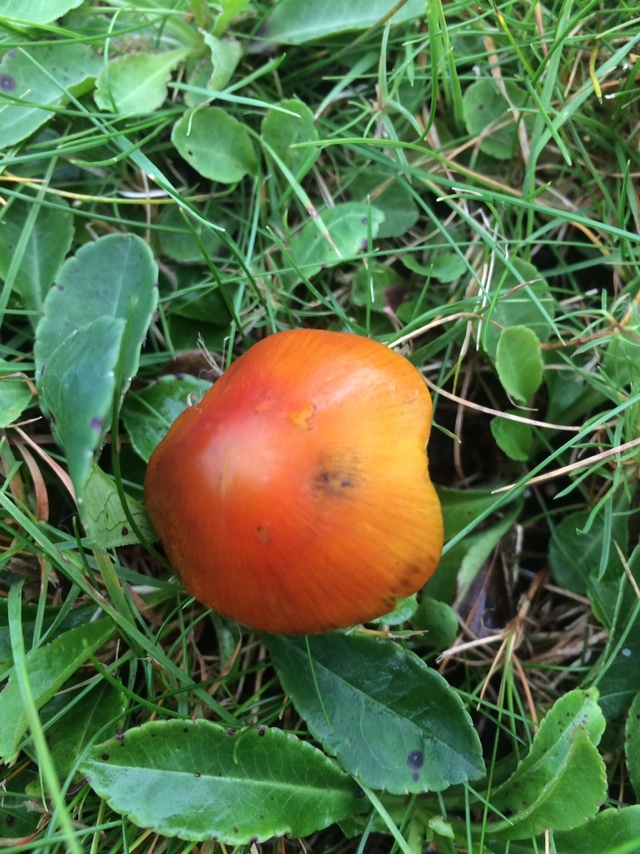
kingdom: Fungi
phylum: Basidiomycota
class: Agaricomycetes
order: Agaricales
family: Hygrophoraceae
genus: Hygrocybe
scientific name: Hygrocybe conica
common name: Blackening wax-cap
